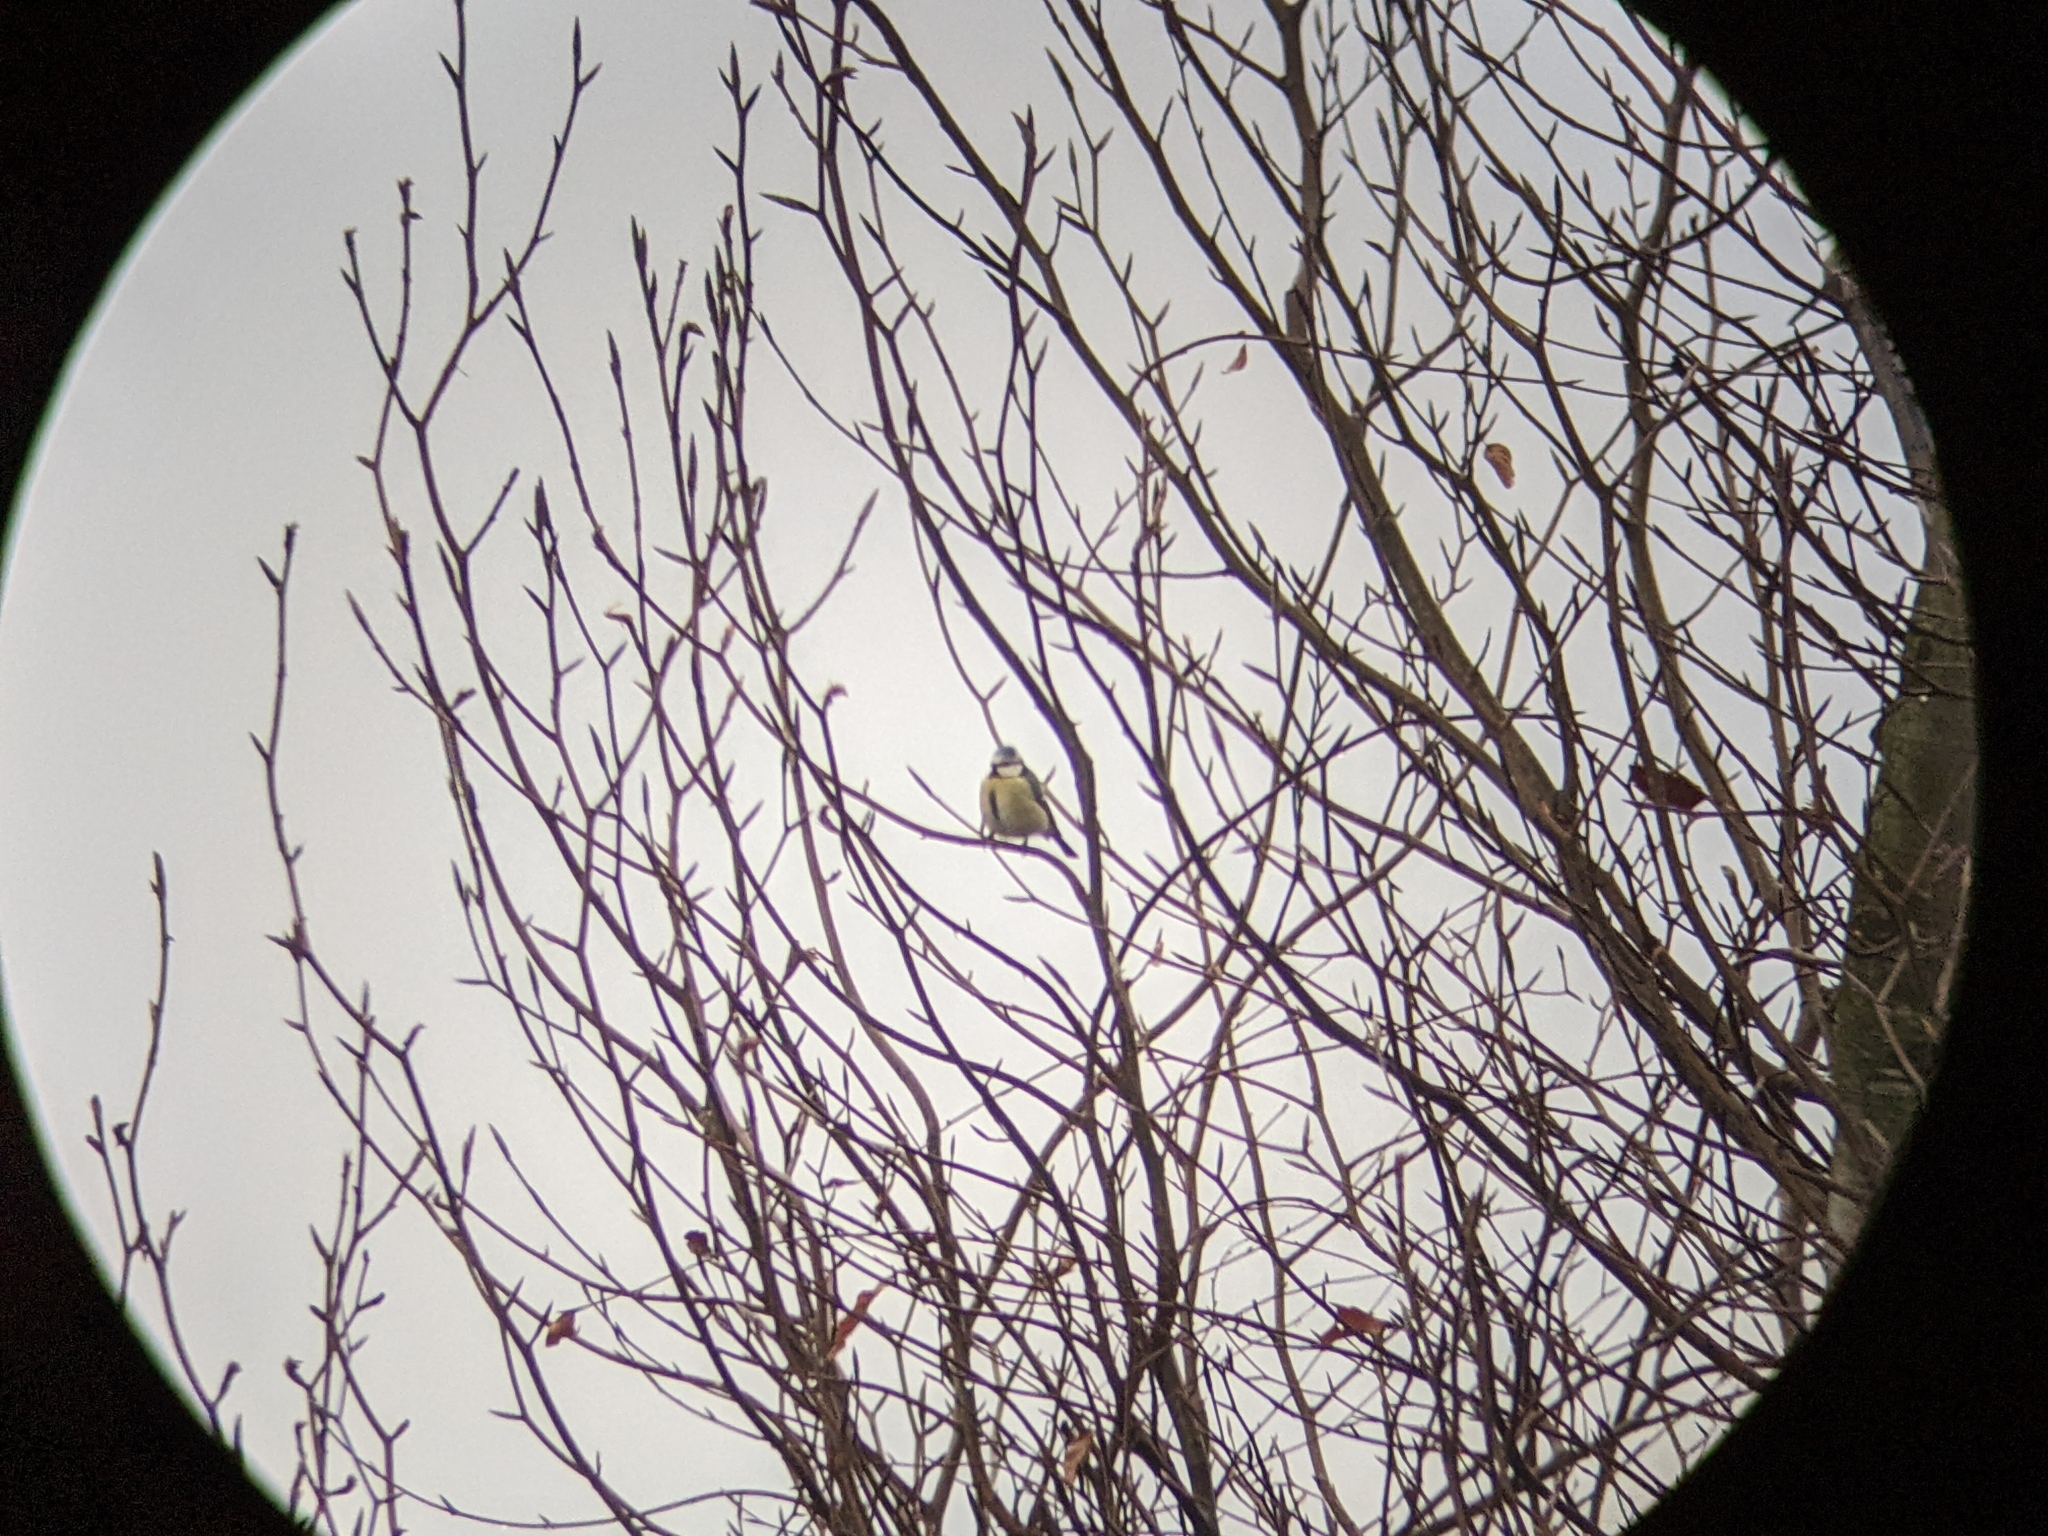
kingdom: Animalia
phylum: Chordata
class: Aves
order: Passeriformes
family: Paridae
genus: Cyanistes
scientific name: Cyanistes caeruleus
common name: Eurasian blue tit
